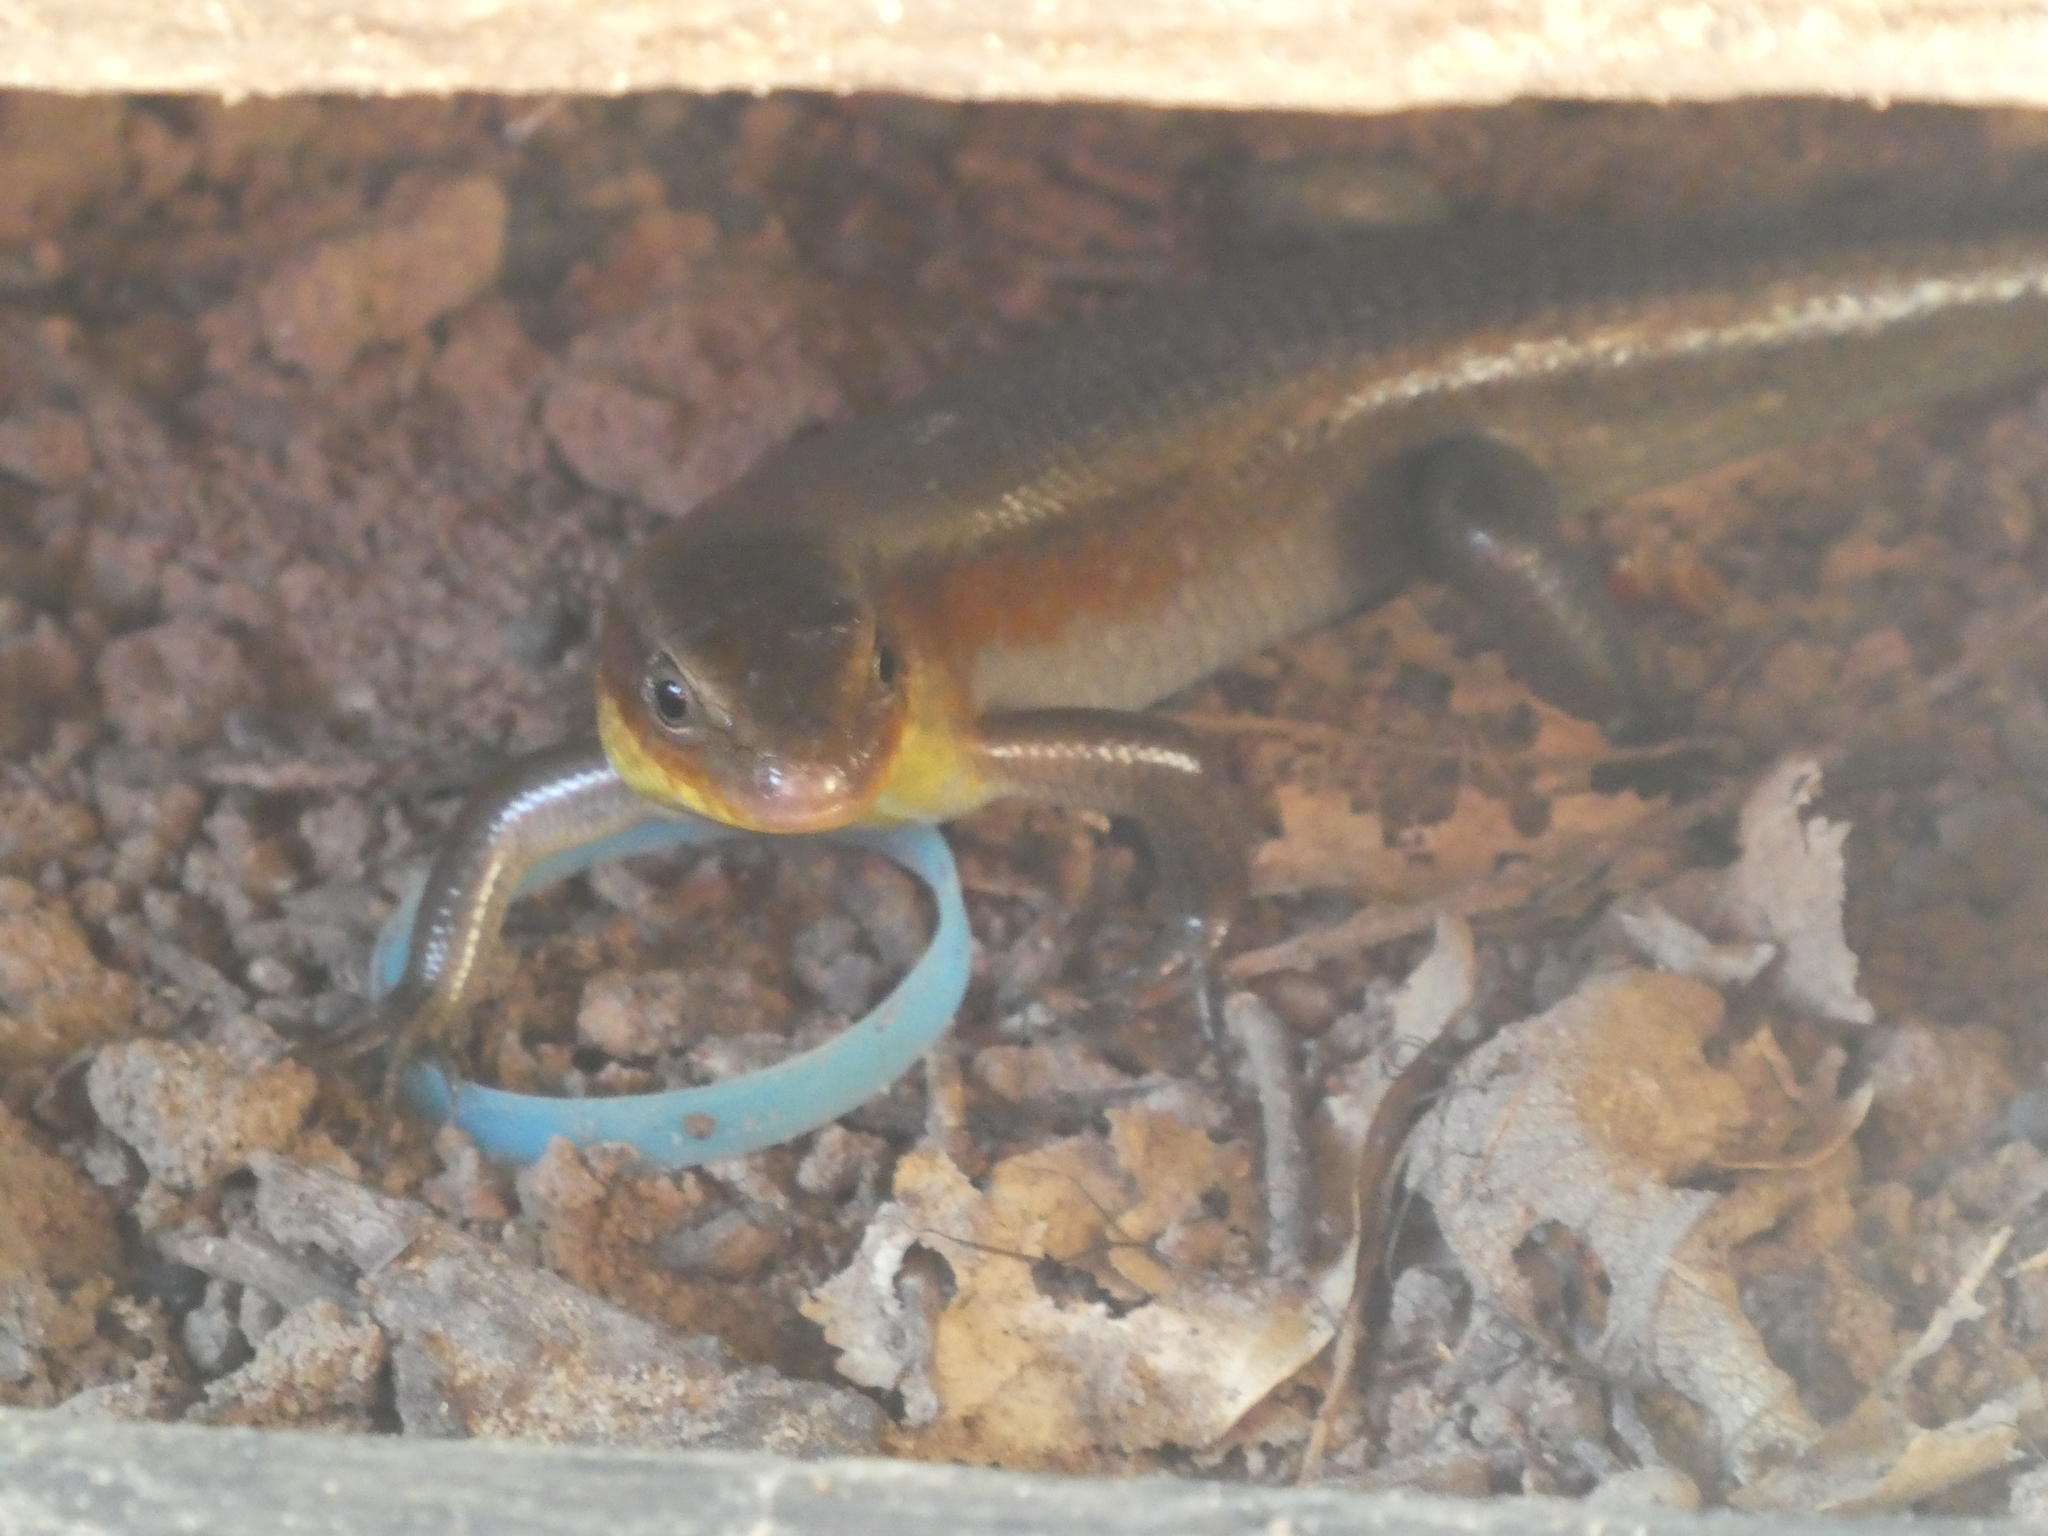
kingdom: Animalia
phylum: Chordata
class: Squamata
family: Scincidae
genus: Eutropis
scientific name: Eutropis multifasciata
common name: Common mabuya
